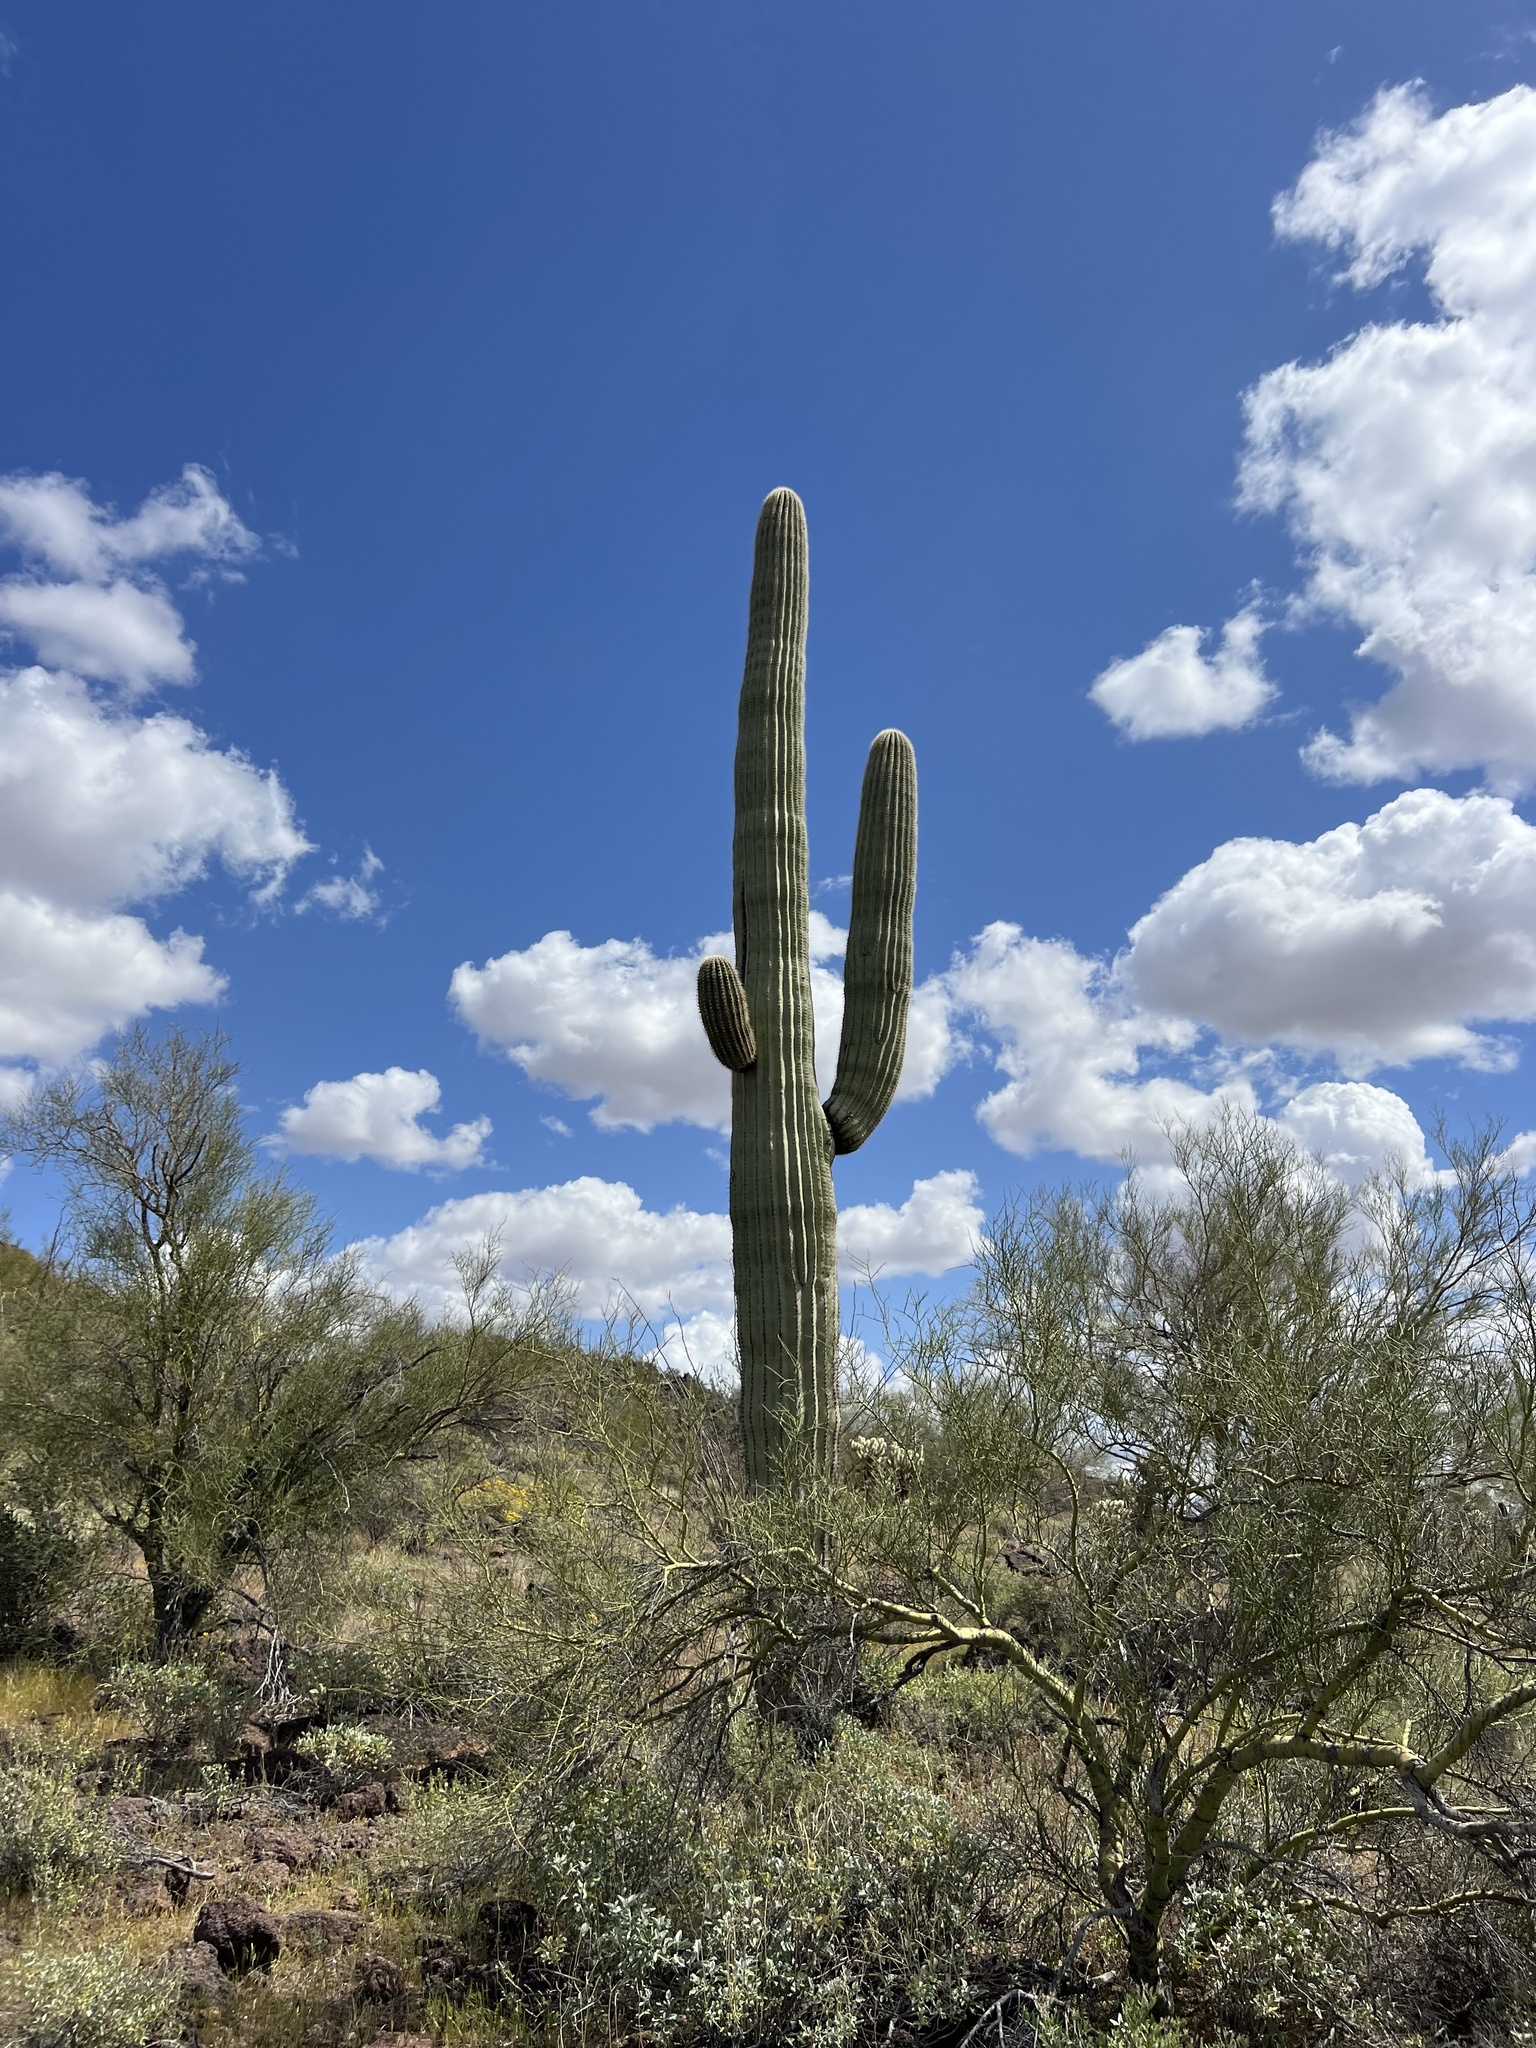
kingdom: Plantae
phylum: Tracheophyta
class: Magnoliopsida
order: Caryophyllales
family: Cactaceae
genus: Carnegiea
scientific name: Carnegiea gigantea
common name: Saguaro
